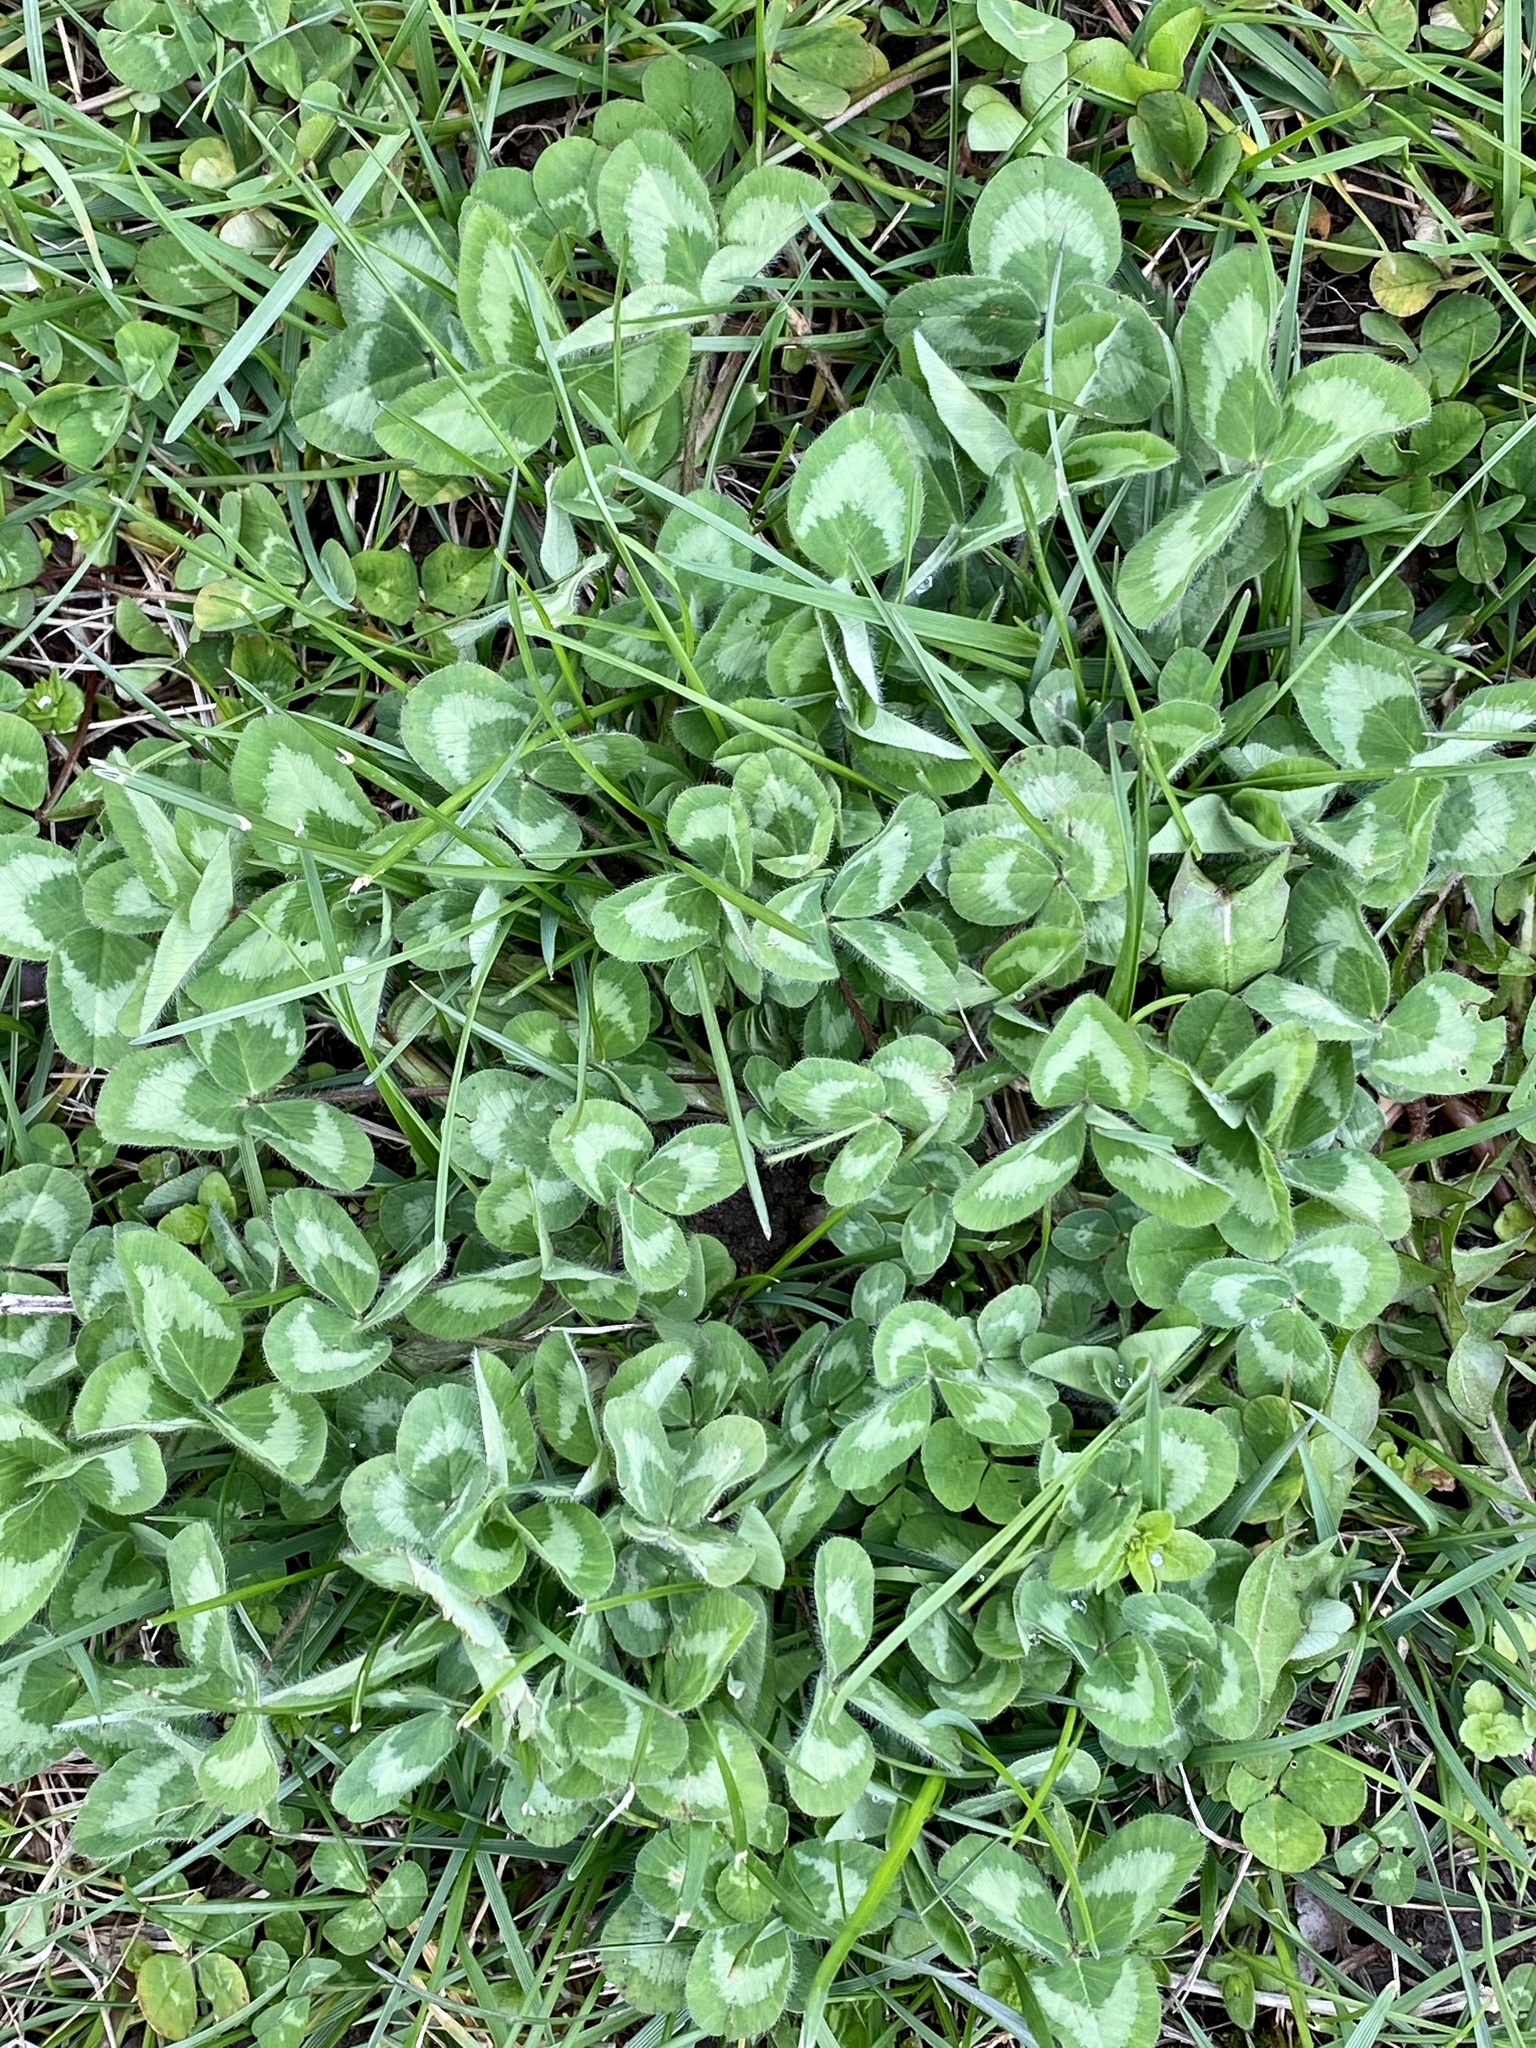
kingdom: Plantae
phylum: Tracheophyta
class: Magnoliopsida
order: Fabales
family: Fabaceae
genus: Trifolium
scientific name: Trifolium pratense
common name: Red clover
